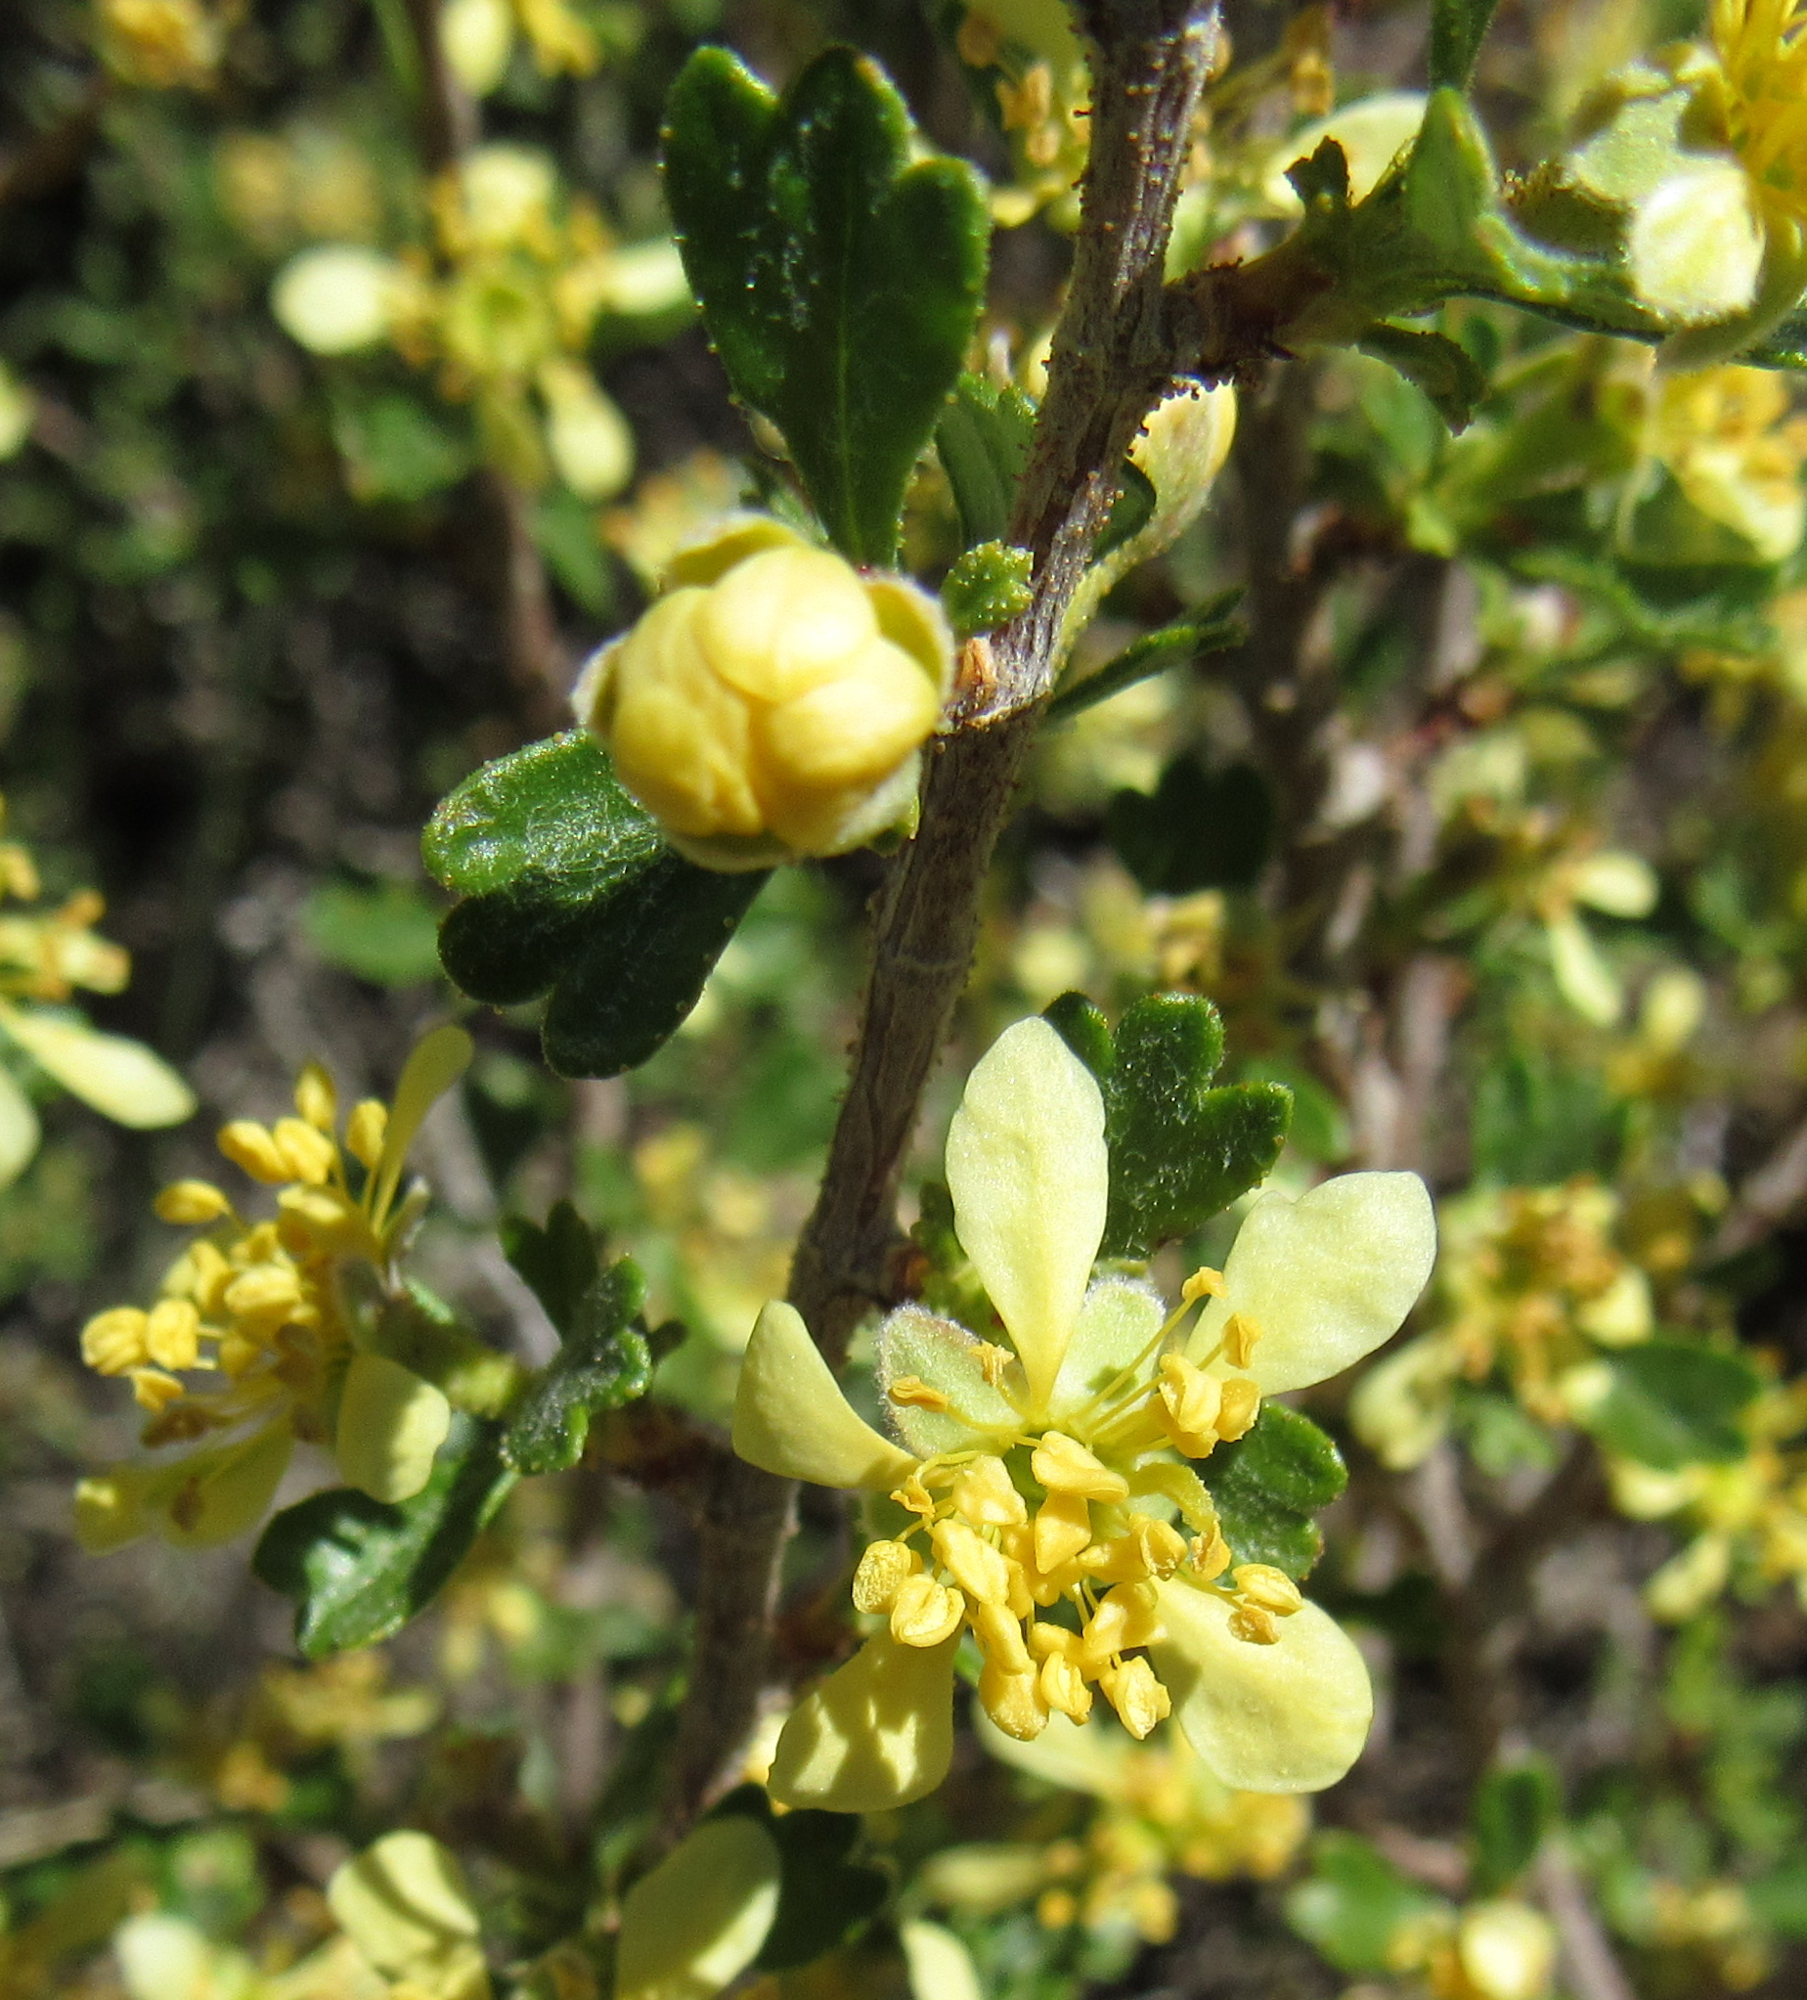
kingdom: Plantae
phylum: Tracheophyta
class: Magnoliopsida
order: Rosales
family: Rosaceae
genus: Purshia
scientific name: Purshia tridentata
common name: Antelope bitterbrush
